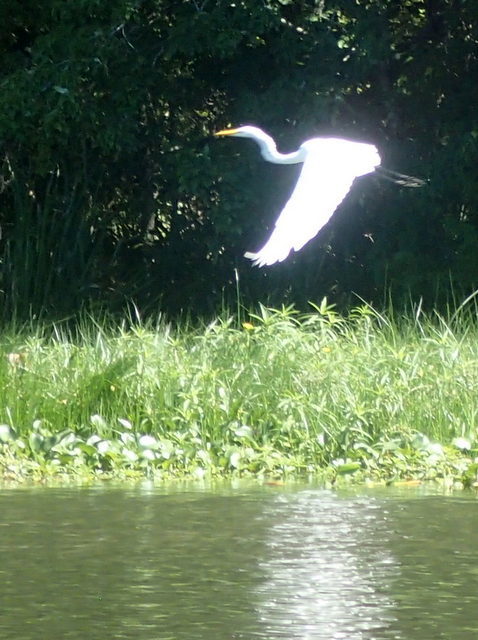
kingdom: Animalia
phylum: Chordata
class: Aves
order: Pelecaniformes
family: Ardeidae
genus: Ardea
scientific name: Ardea alba
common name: Great egret
